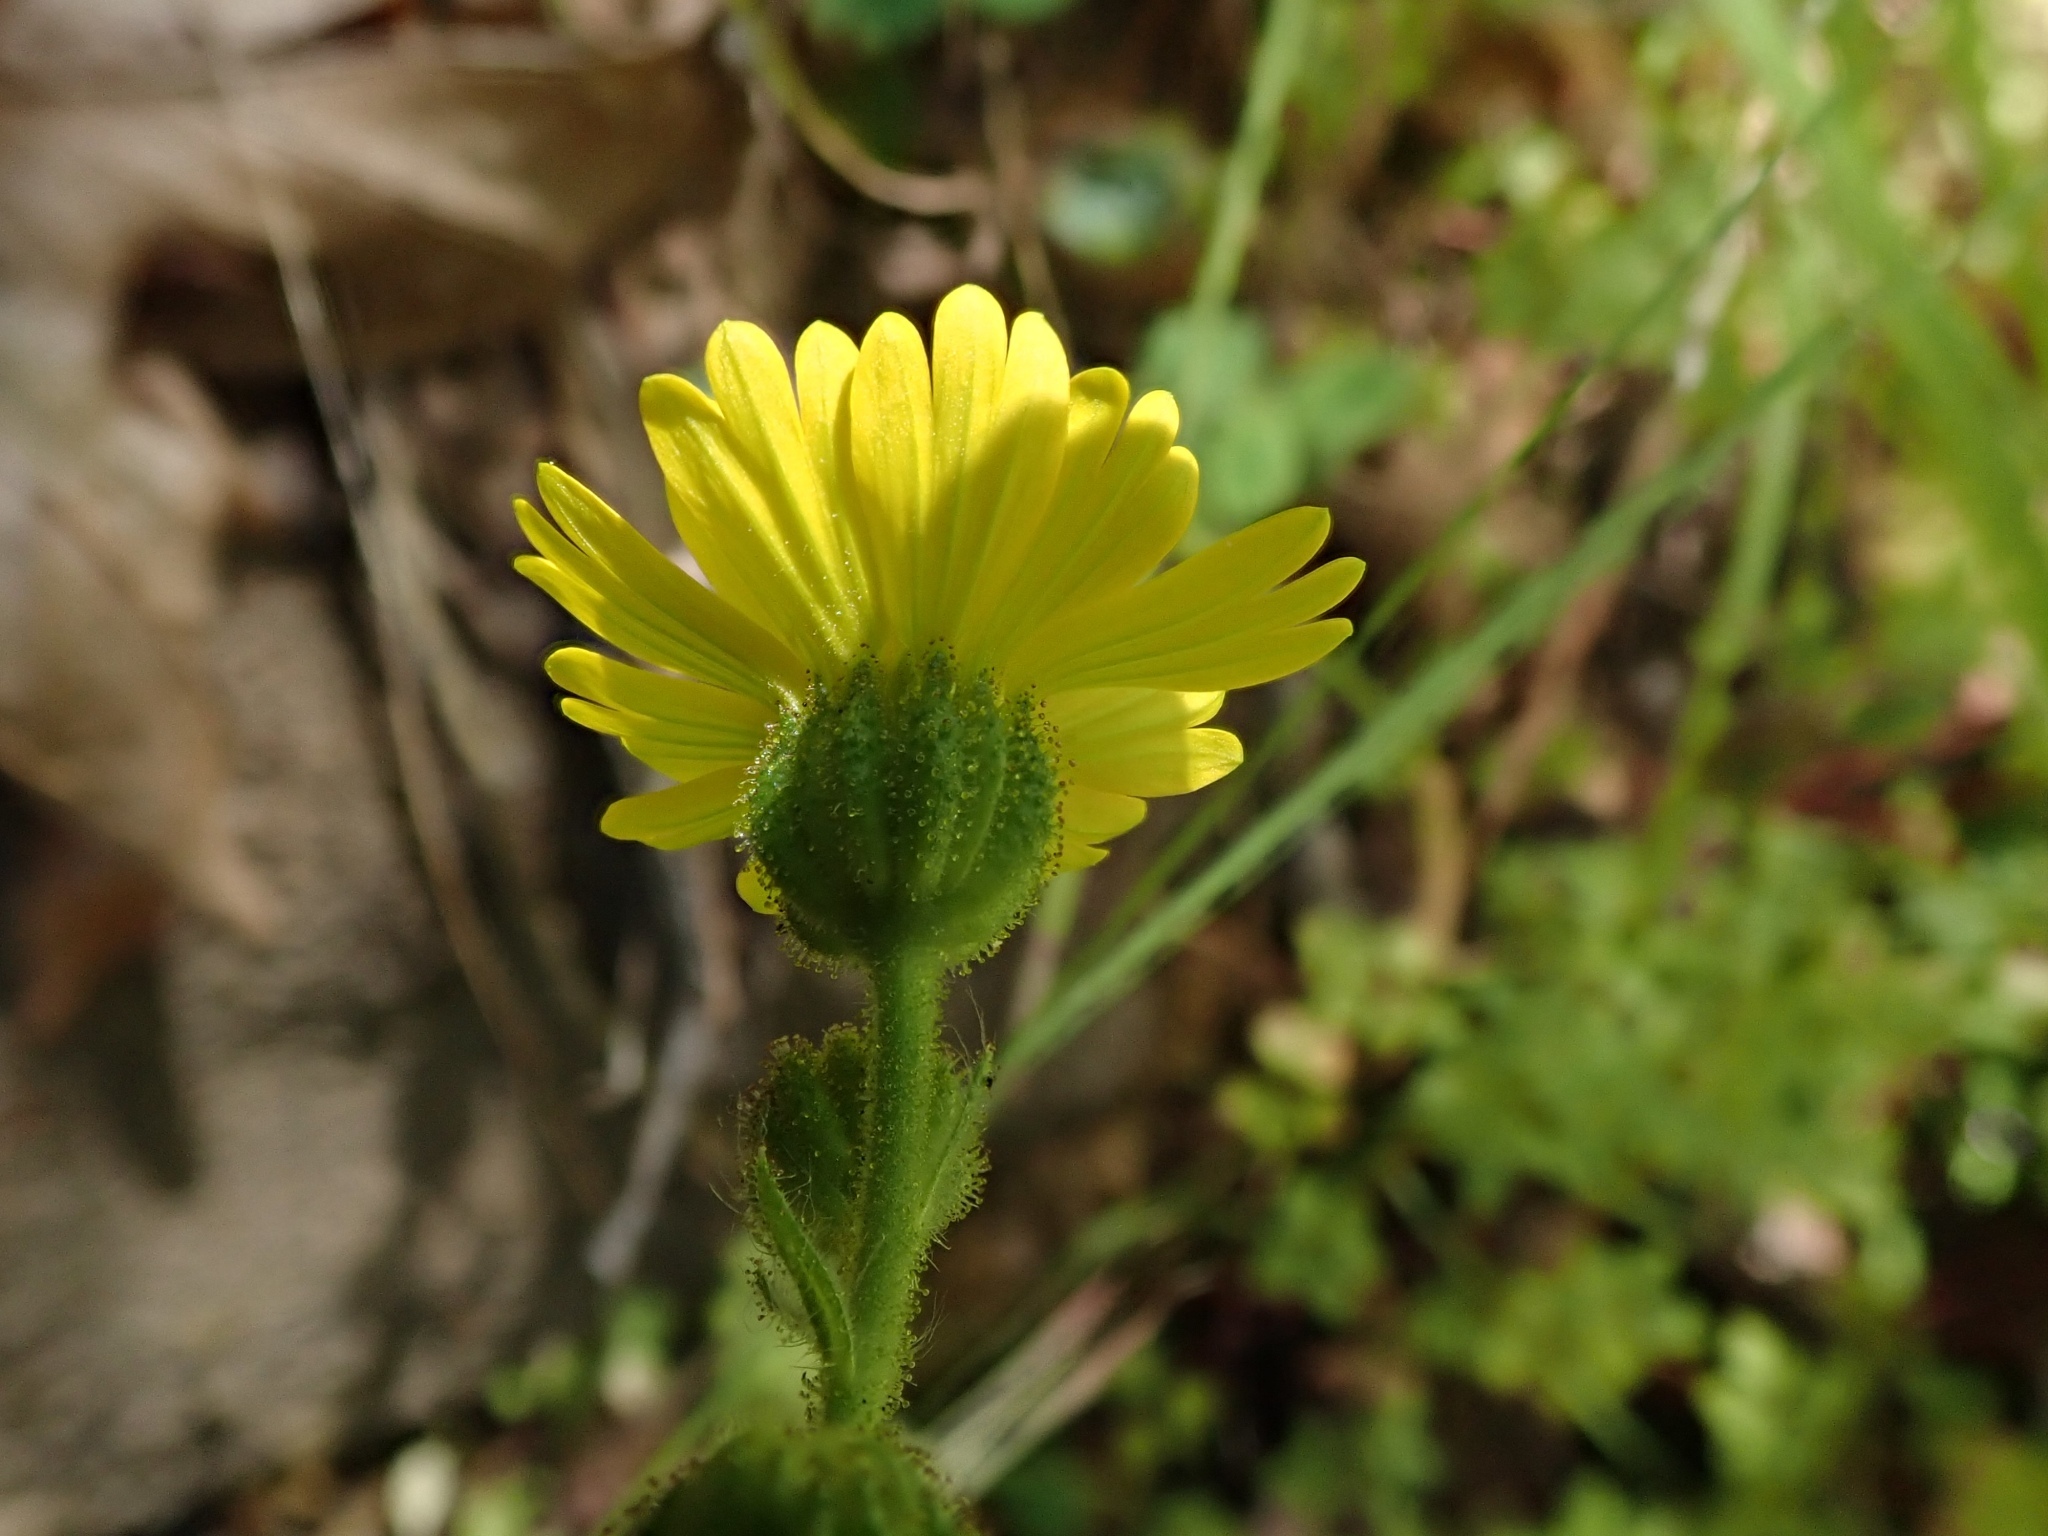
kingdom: Plantae
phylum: Tracheophyta
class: Magnoliopsida
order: Asterales
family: Asteraceae
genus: Anisocarpus
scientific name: Anisocarpus madioides
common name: Woodland madia
